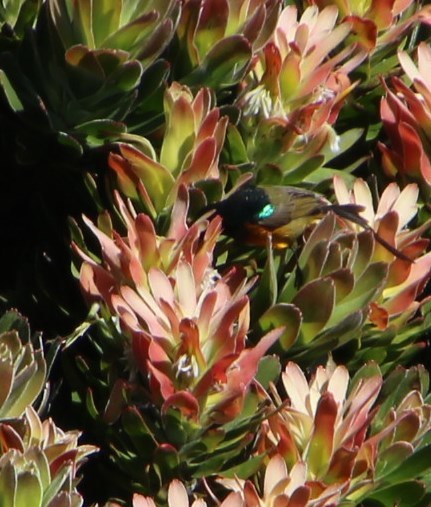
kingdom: Animalia
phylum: Chordata
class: Aves
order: Passeriformes
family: Nectariniidae
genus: Anthobaphes
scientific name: Anthobaphes violacea
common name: Orange-breasted sunbird
